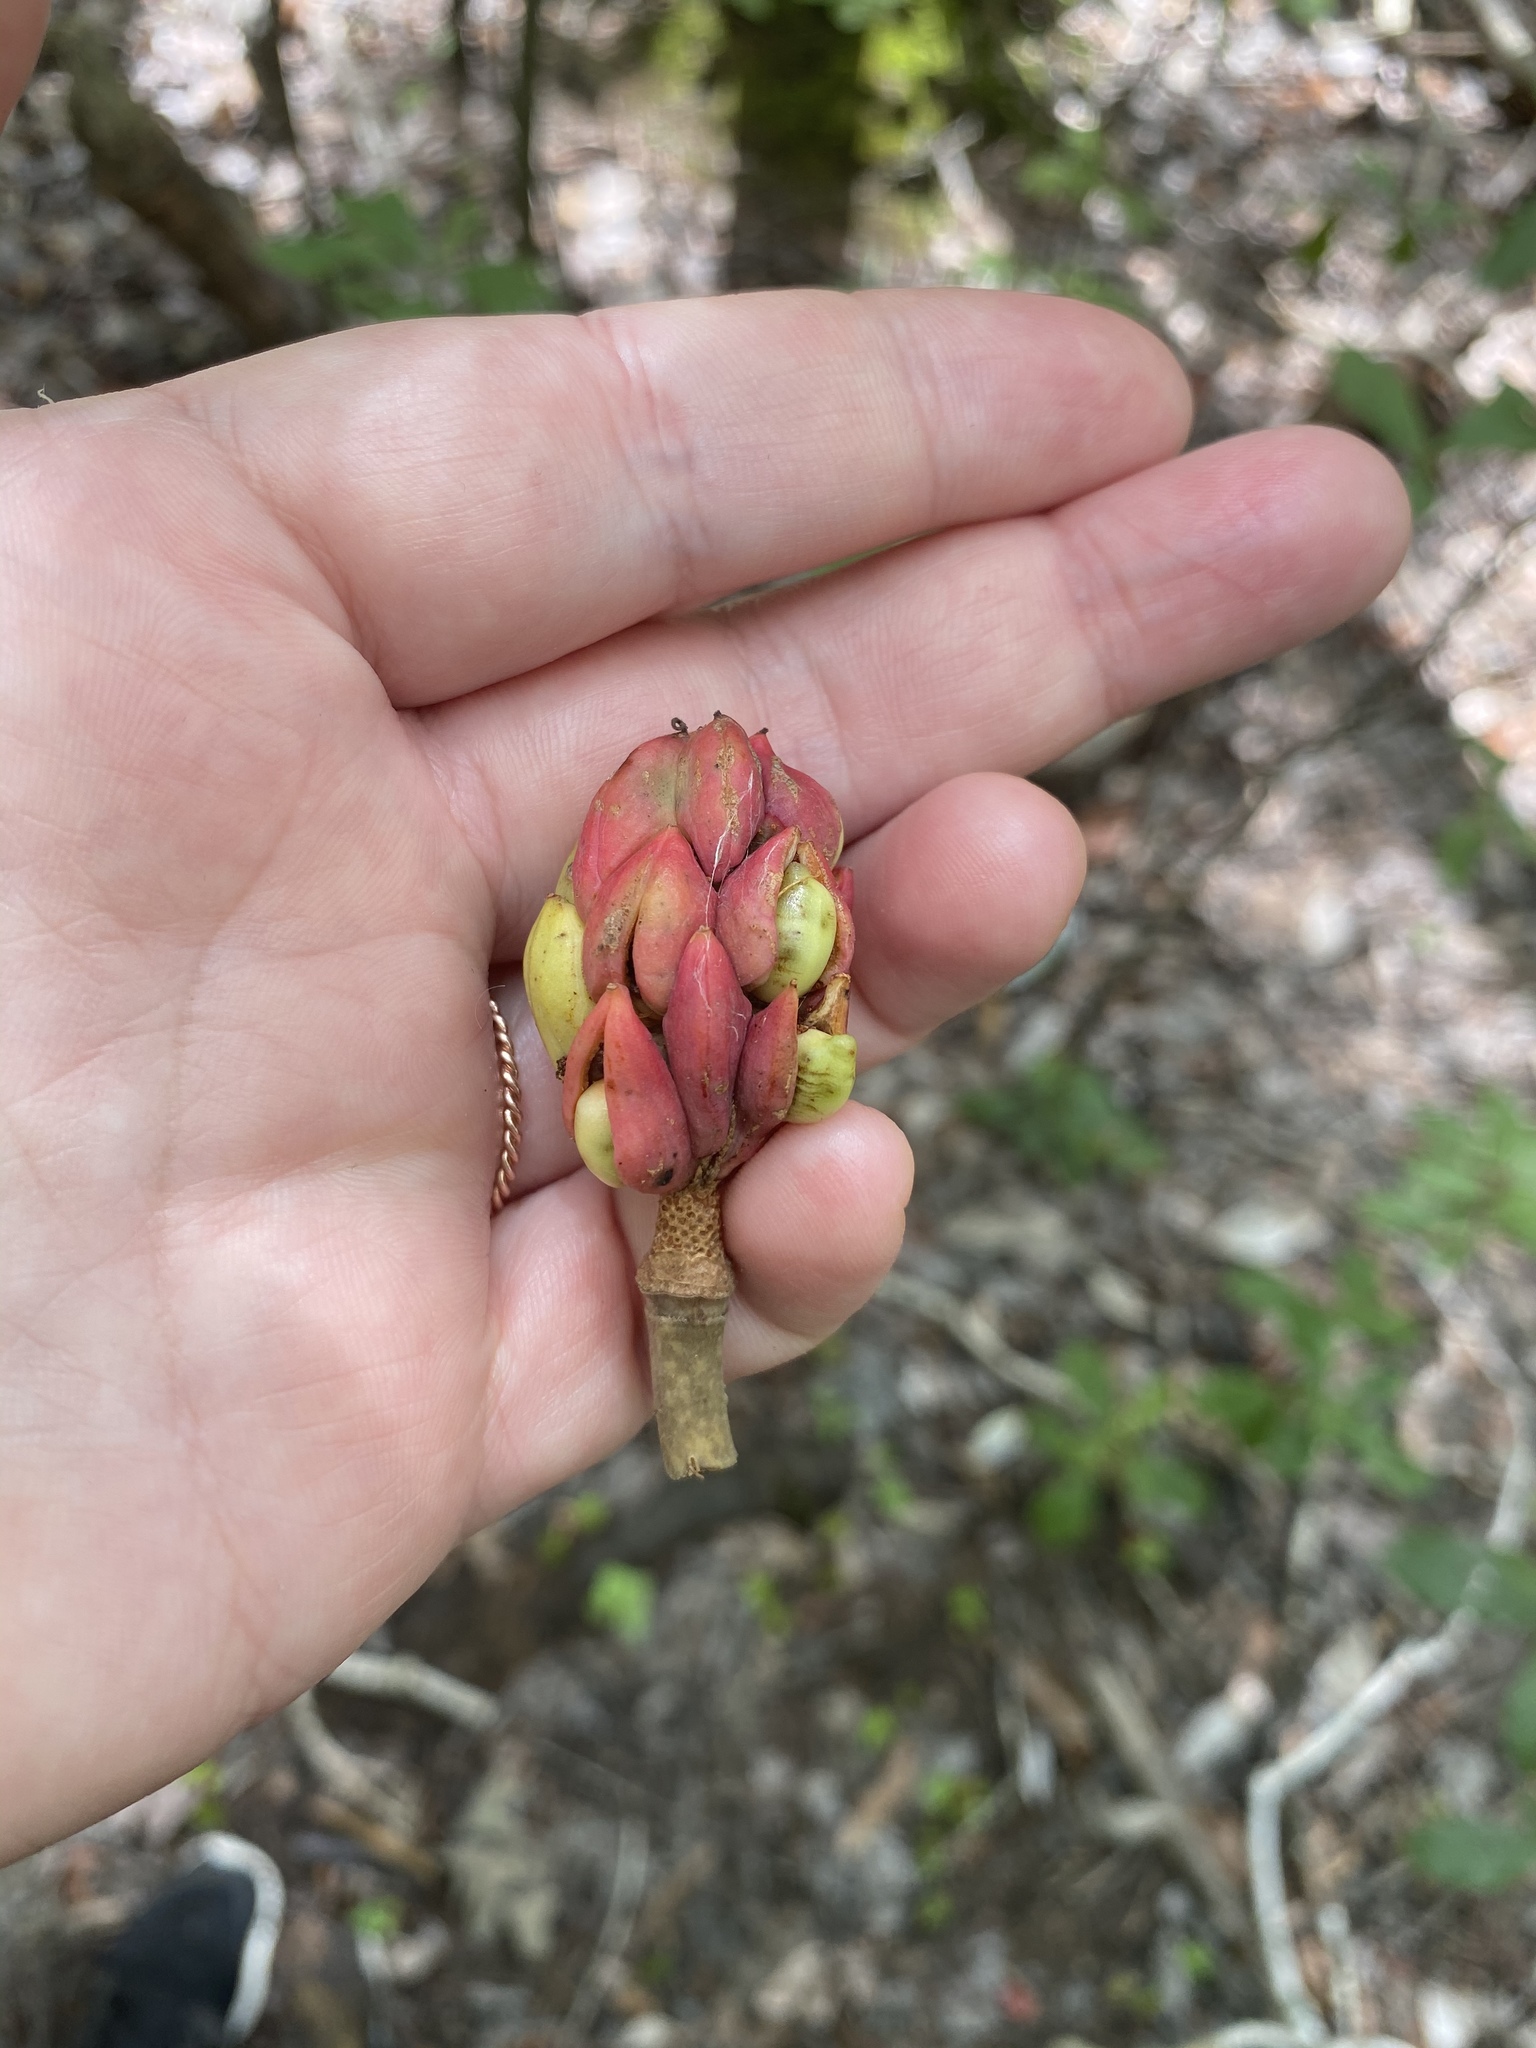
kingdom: Plantae
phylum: Tracheophyta
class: Magnoliopsida
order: Magnoliales
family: Magnoliaceae
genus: Magnolia
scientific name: Magnolia virginiana
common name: Swamp bay
